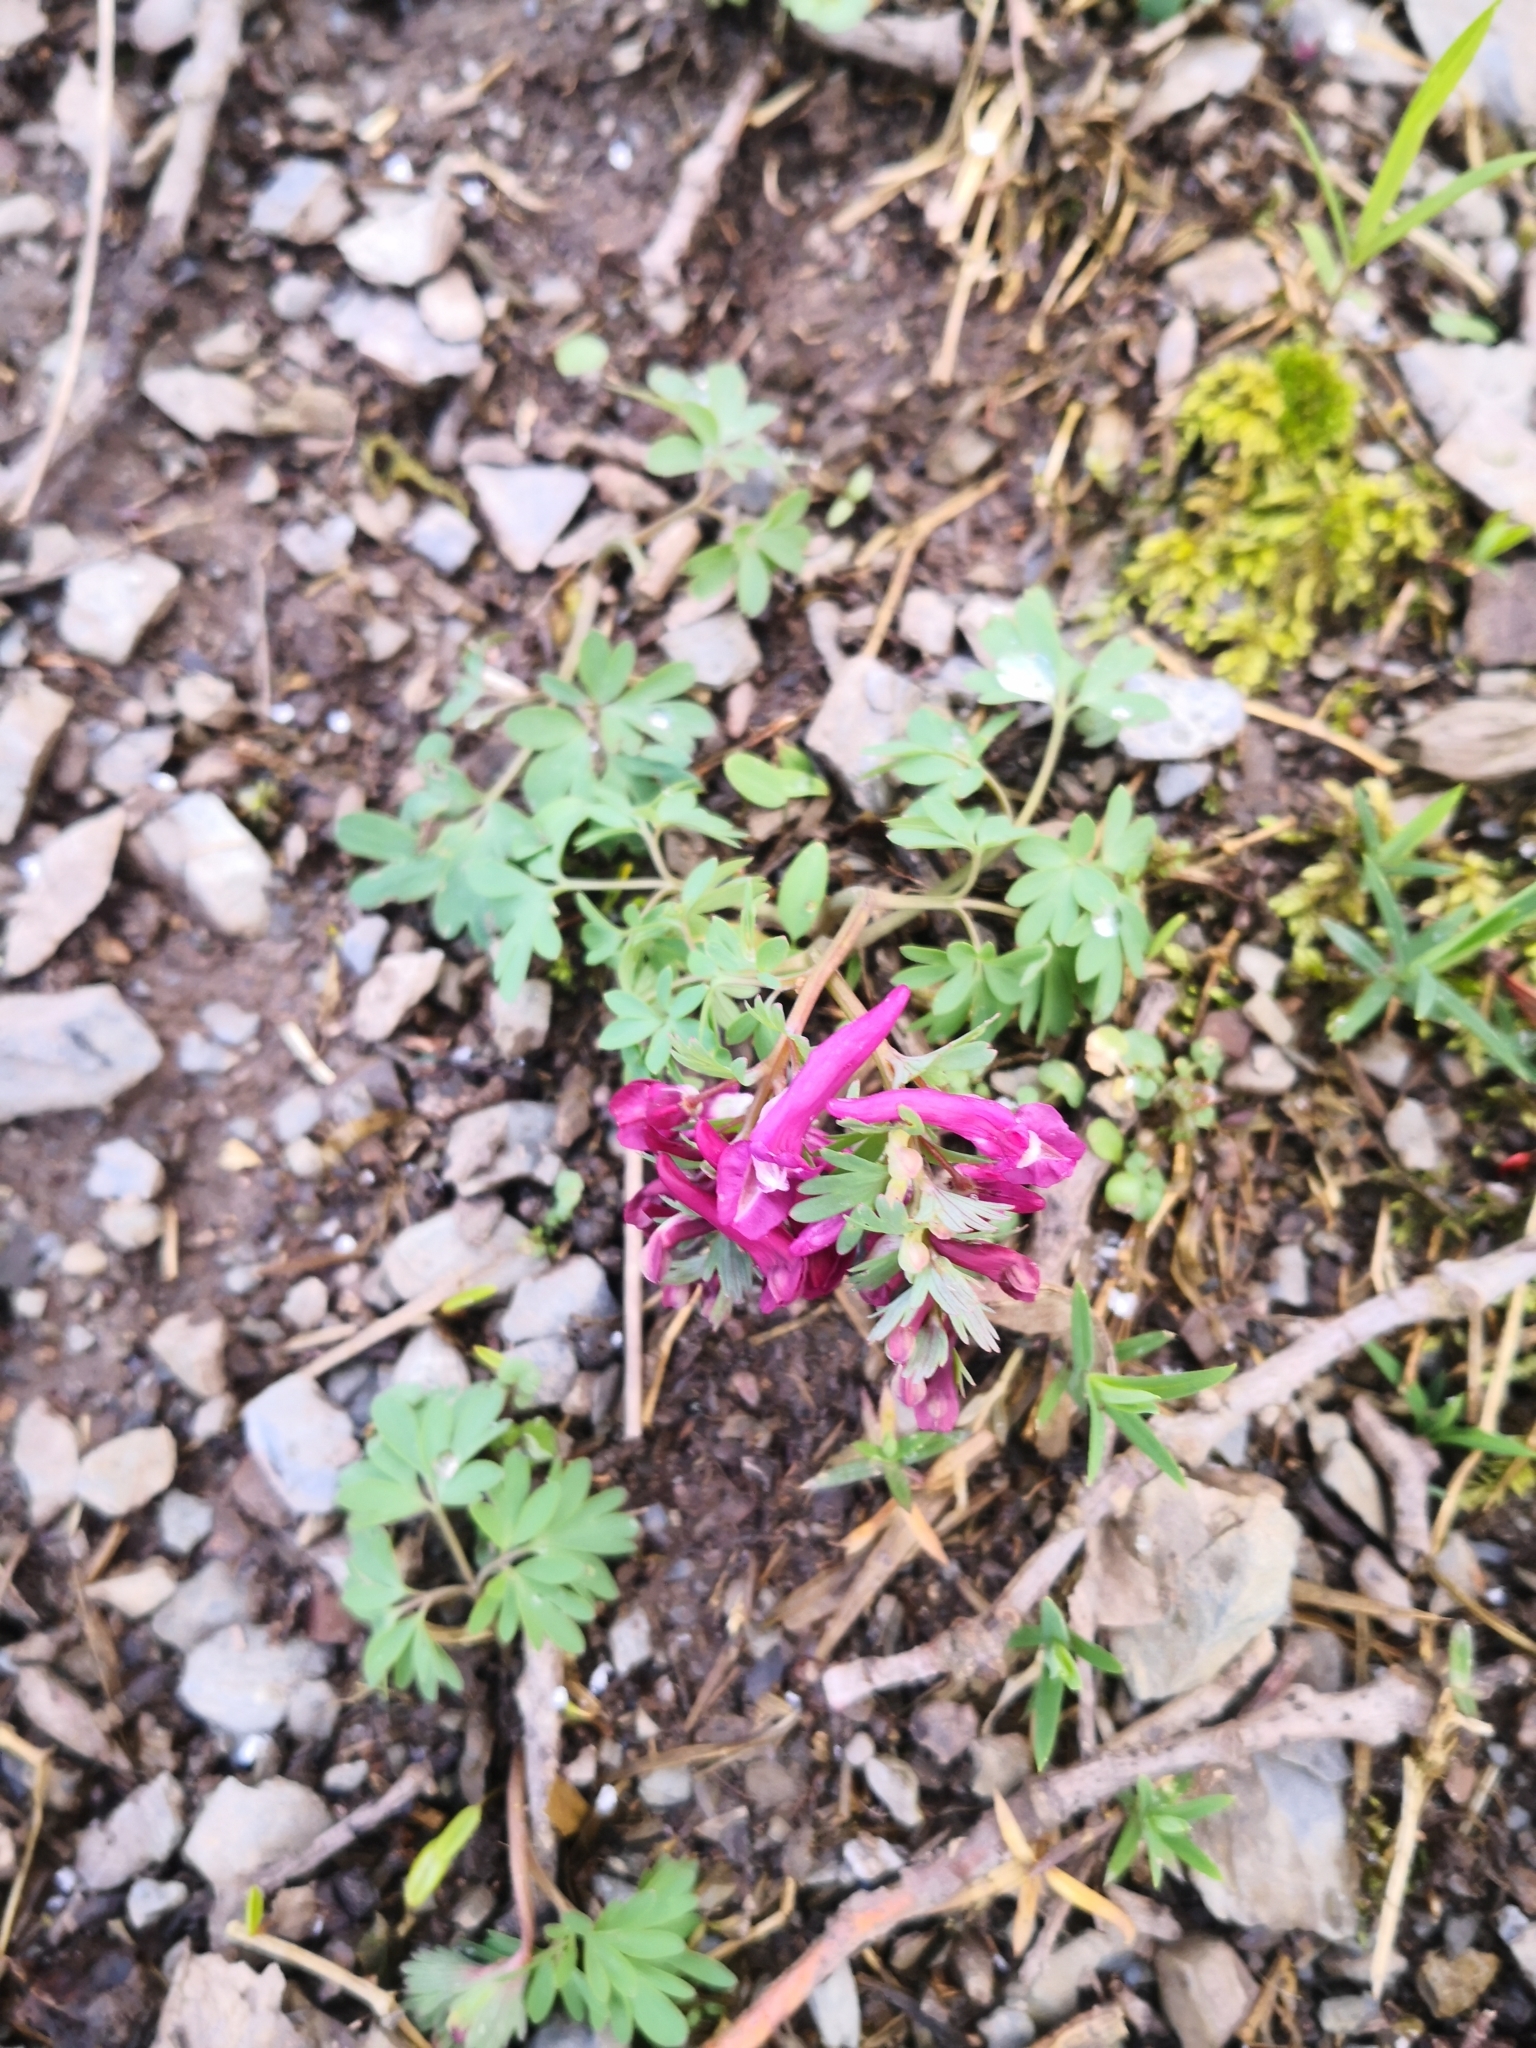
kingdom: Plantae
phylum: Tracheophyta
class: Magnoliopsida
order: Ranunculales
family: Papaveraceae
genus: Corydalis
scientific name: Corydalis solida
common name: Bird-in-a-bush
